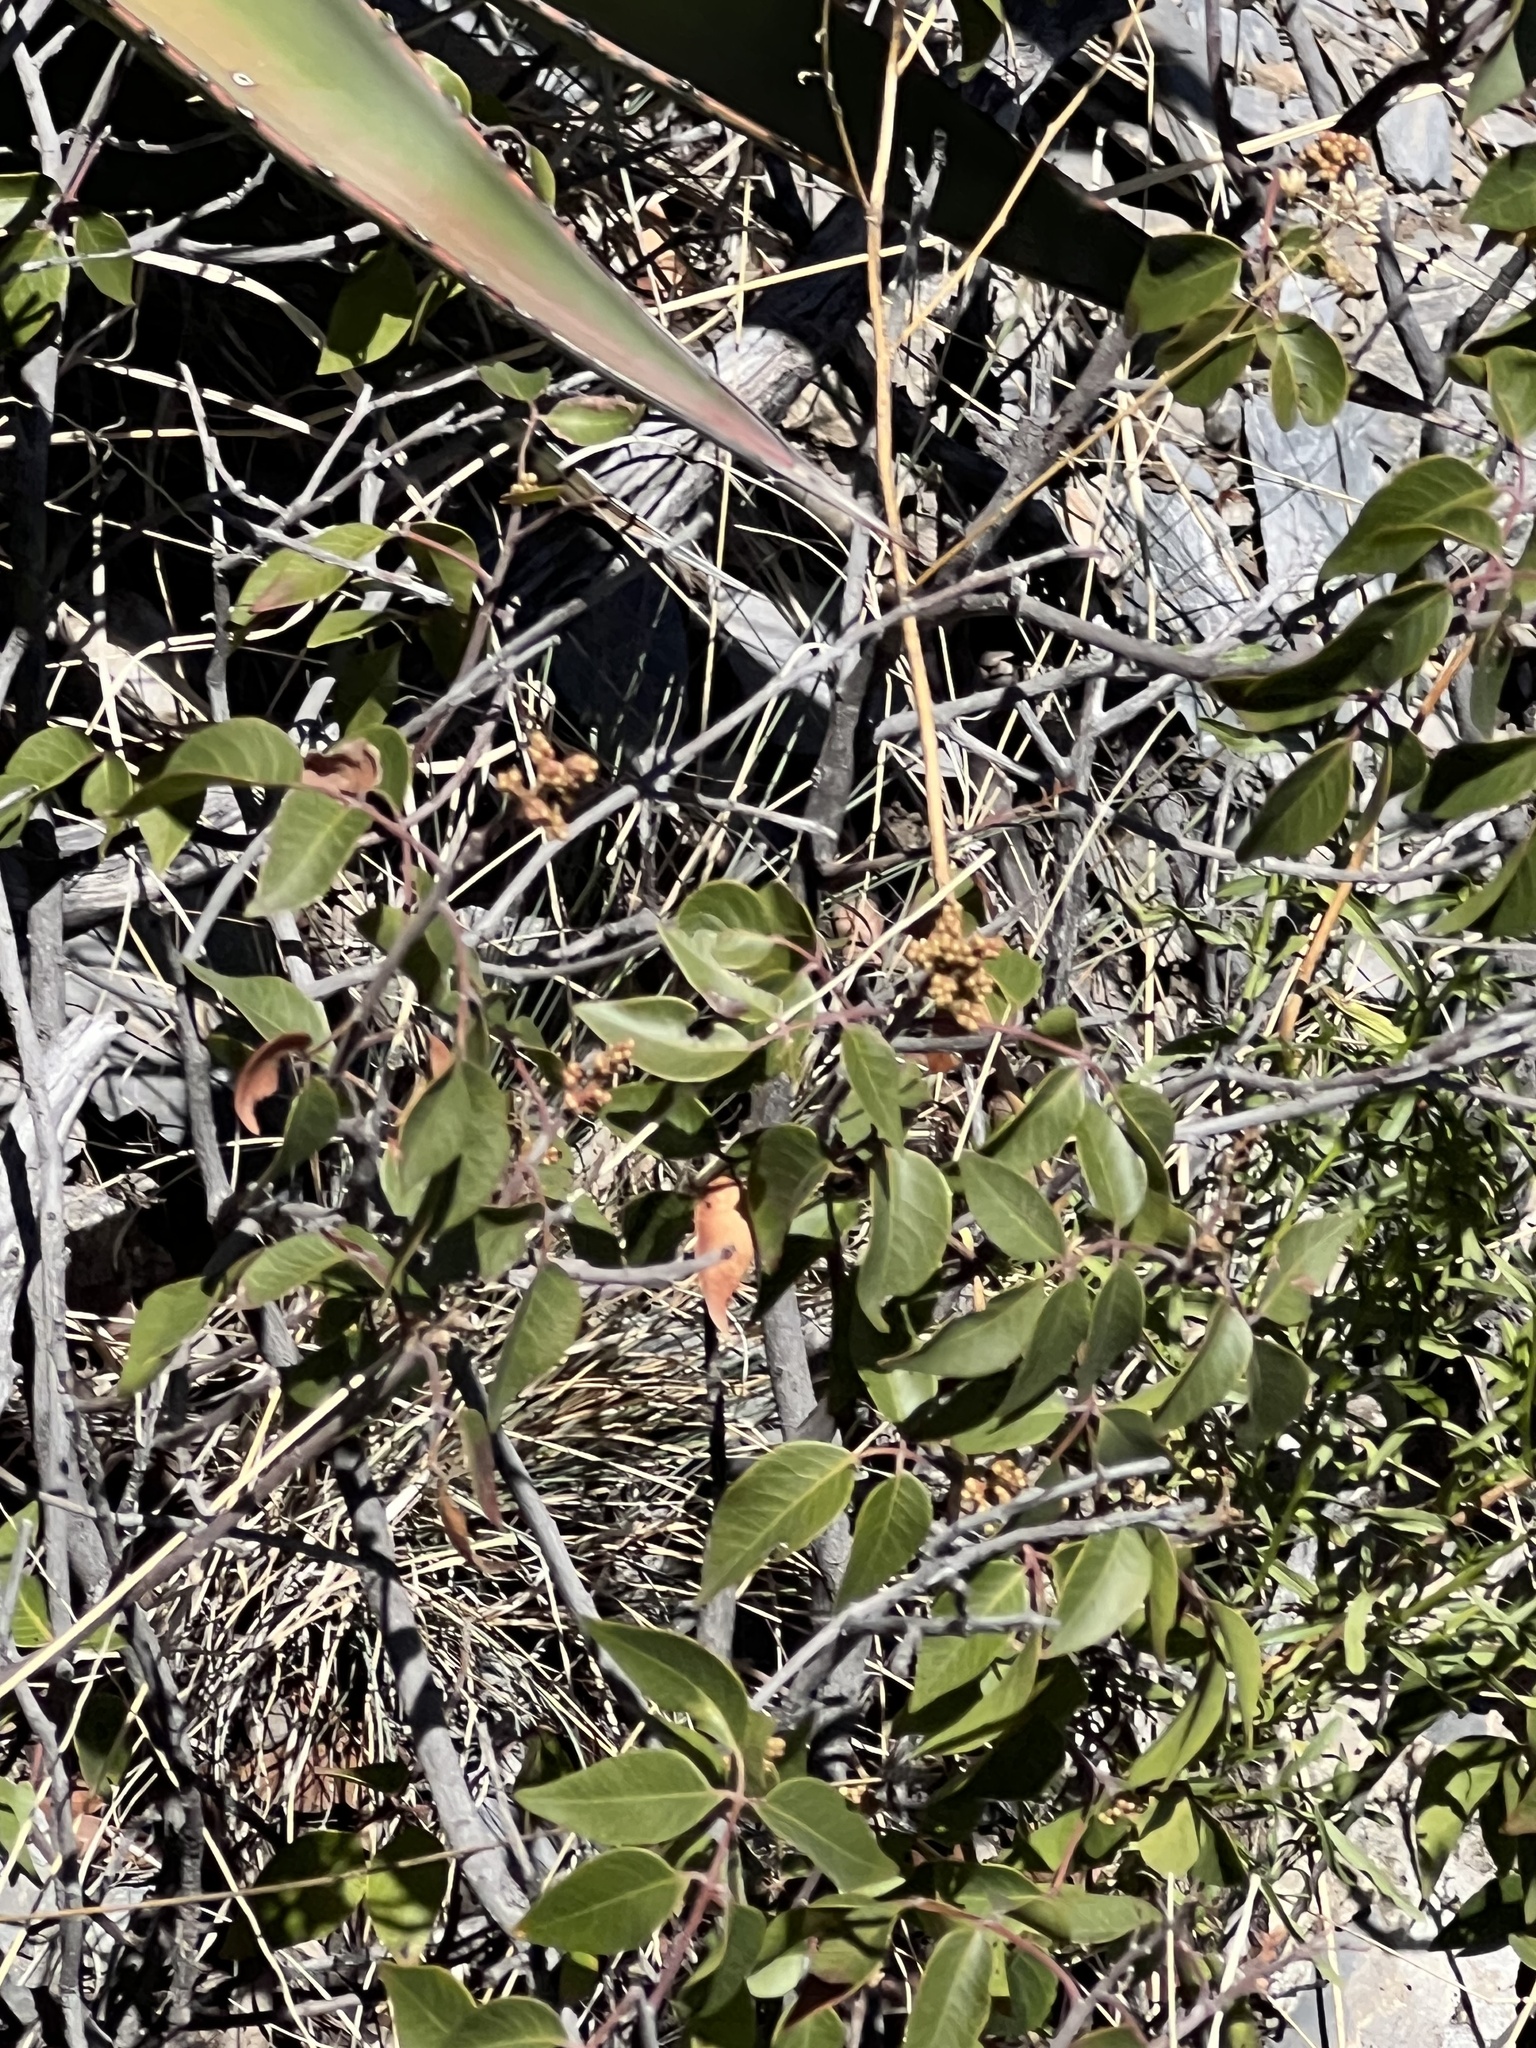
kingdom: Plantae
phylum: Tracheophyta
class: Magnoliopsida
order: Sapindales
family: Anacardiaceae
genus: Rhus
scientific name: Rhus virens
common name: Evergreen sumac
